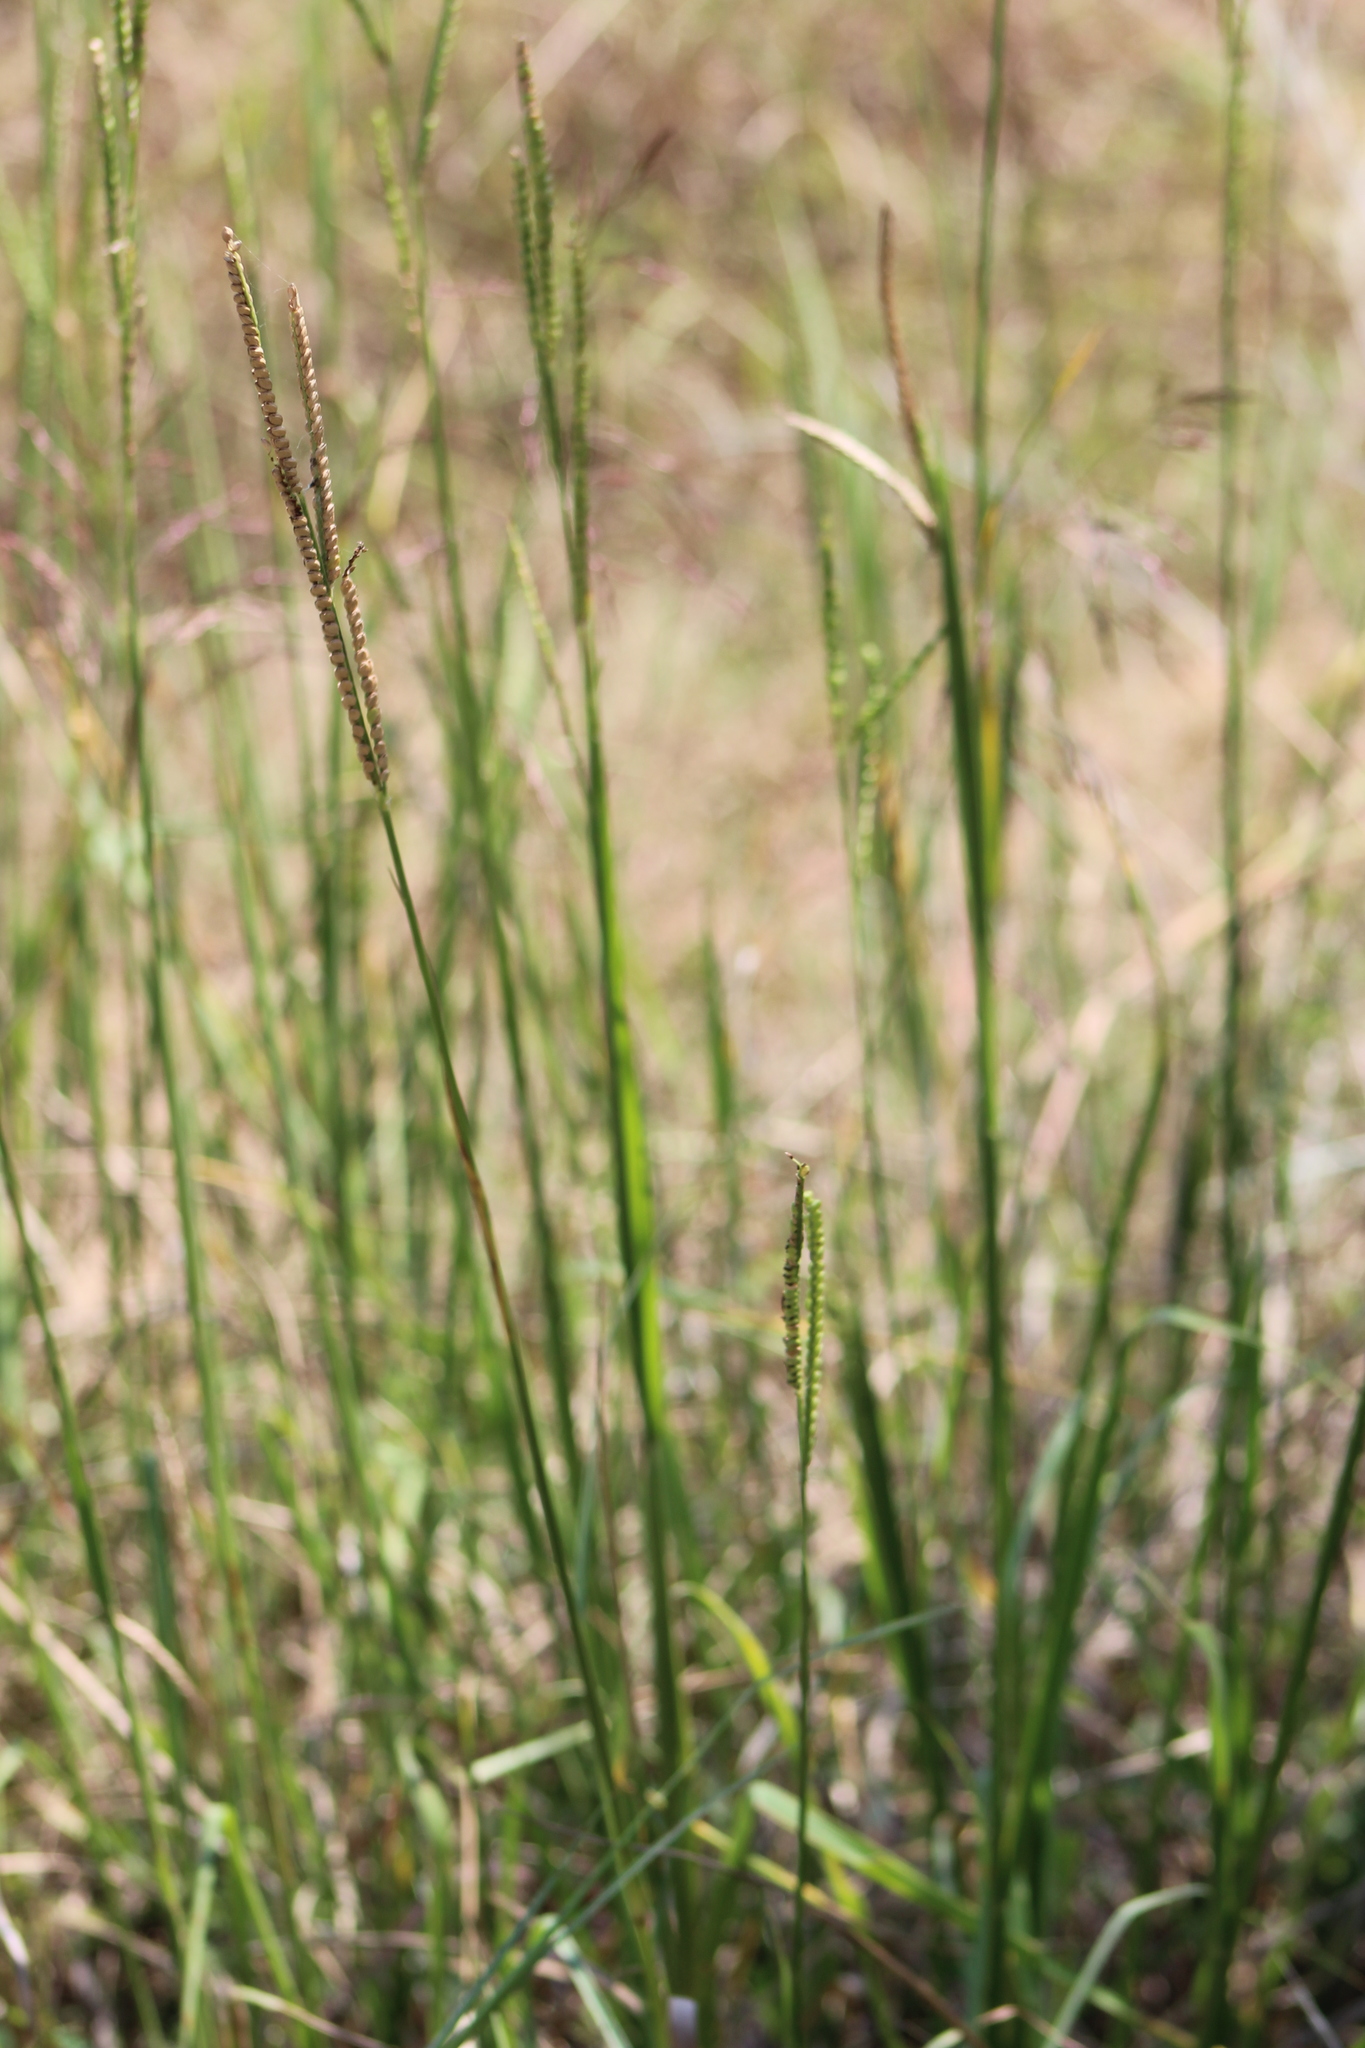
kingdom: Plantae
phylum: Tracheophyta
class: Liliopsida
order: Poales
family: Poaceae
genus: Paspalum
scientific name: Paspalum floridanum
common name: Florida paspalum
